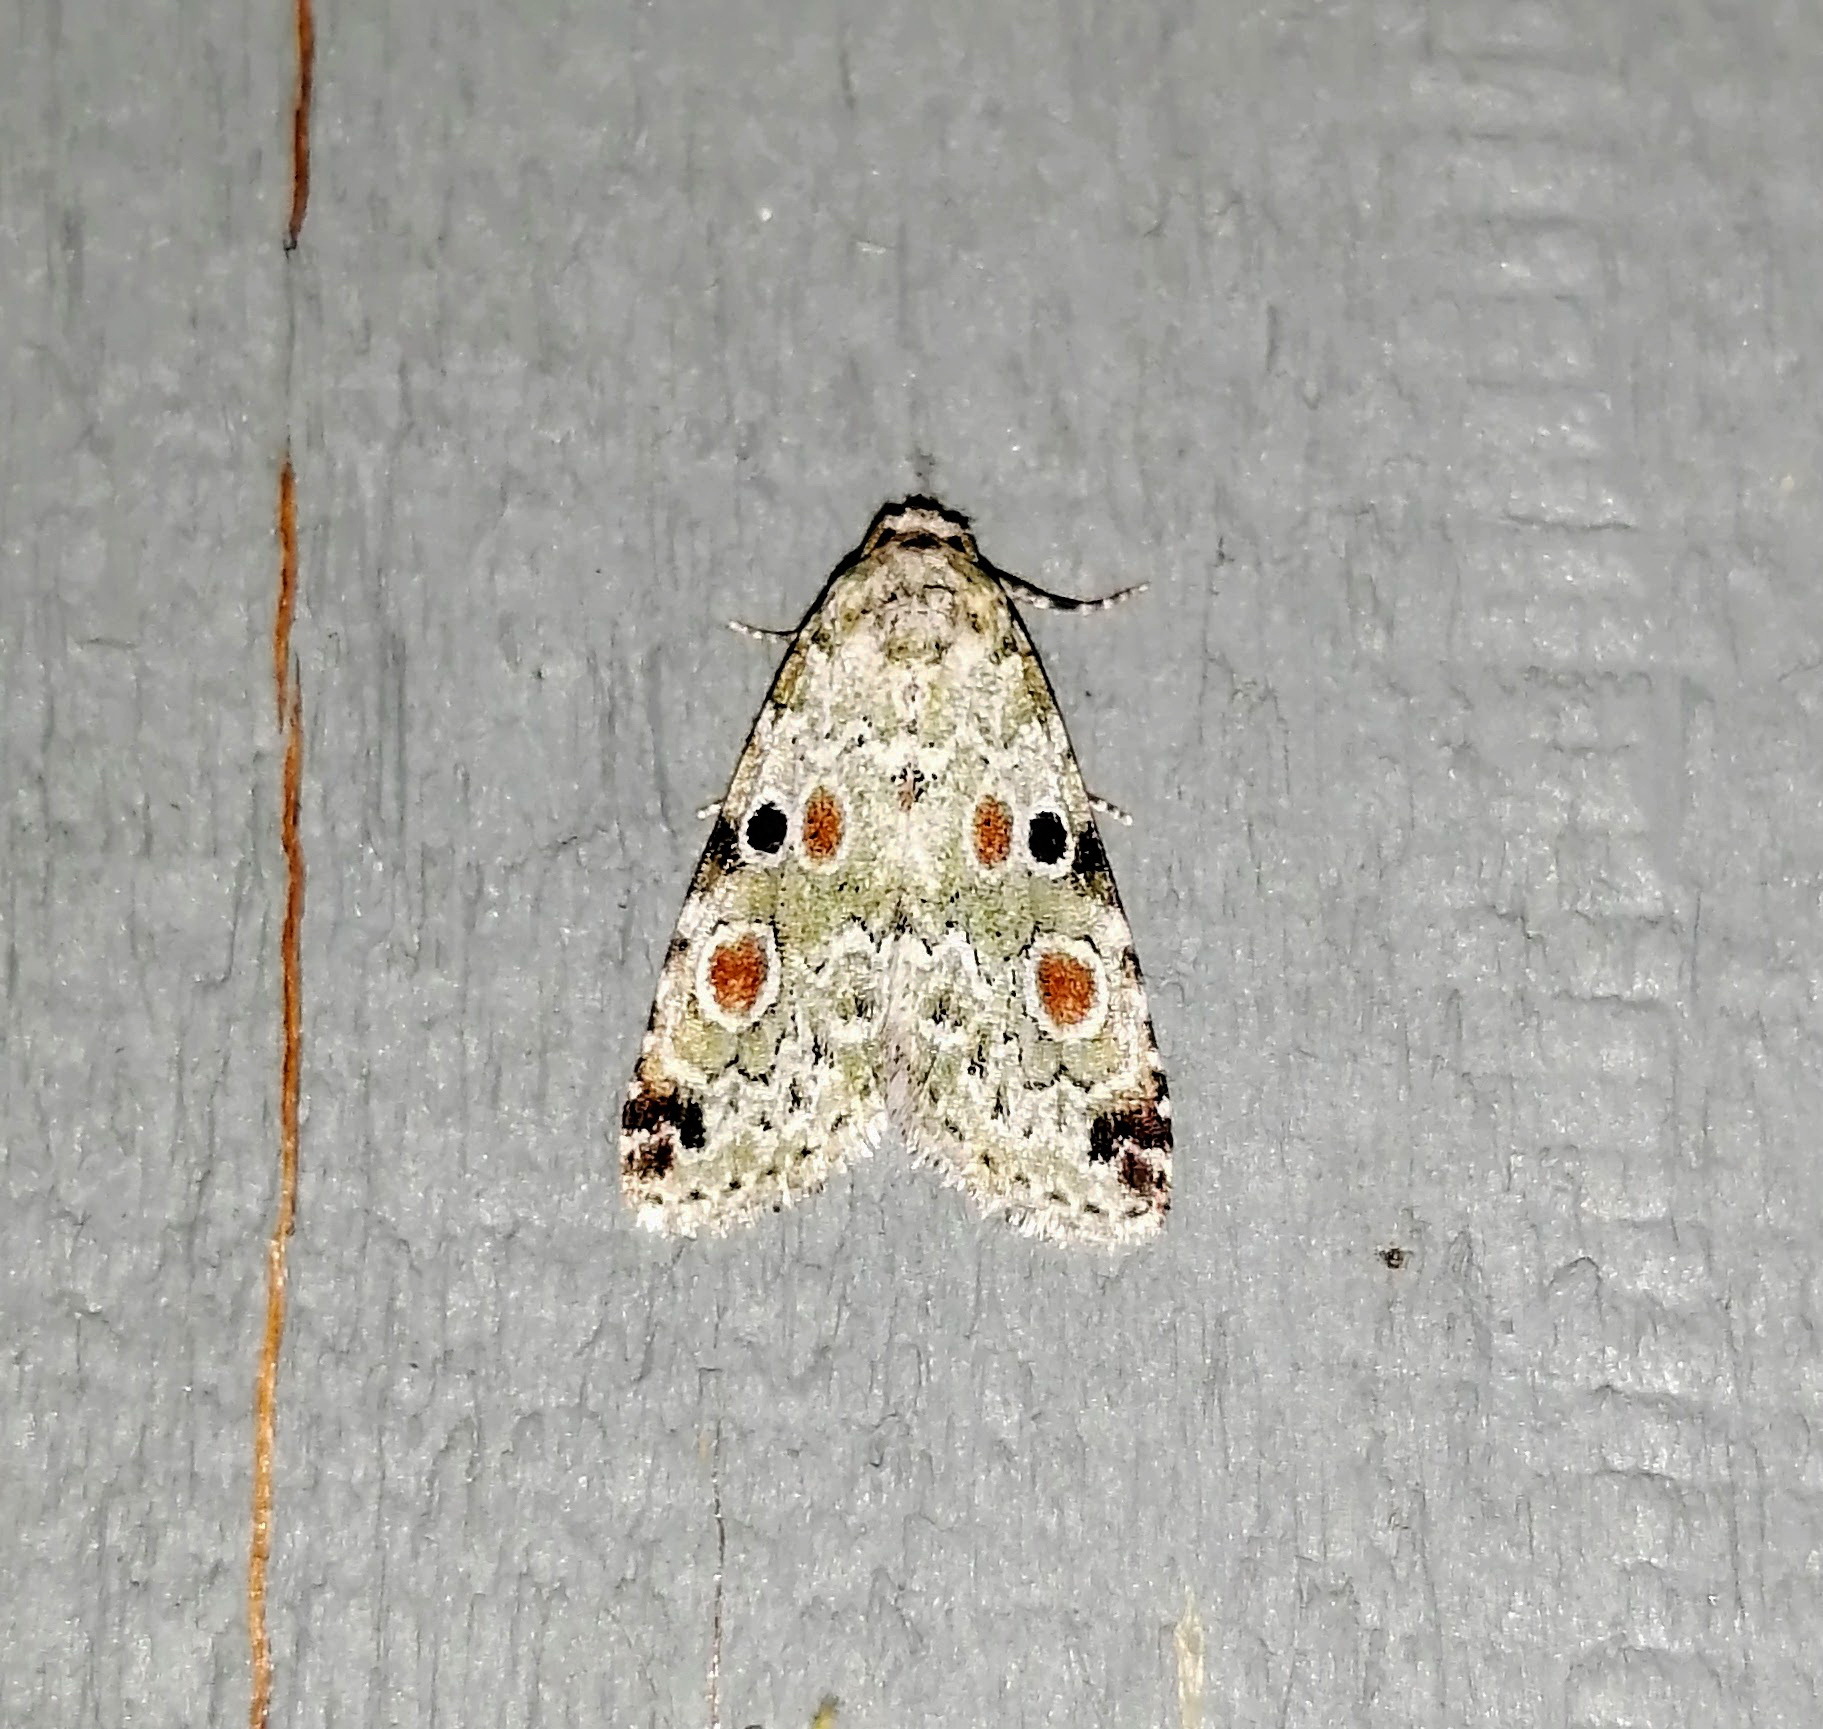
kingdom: Animalia
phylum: Arthropoda
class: Insecta
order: Lepidoptera
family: Noctuidae
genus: Maliattha
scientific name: Maliattha concinnimacula
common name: Red-spotted glyph
